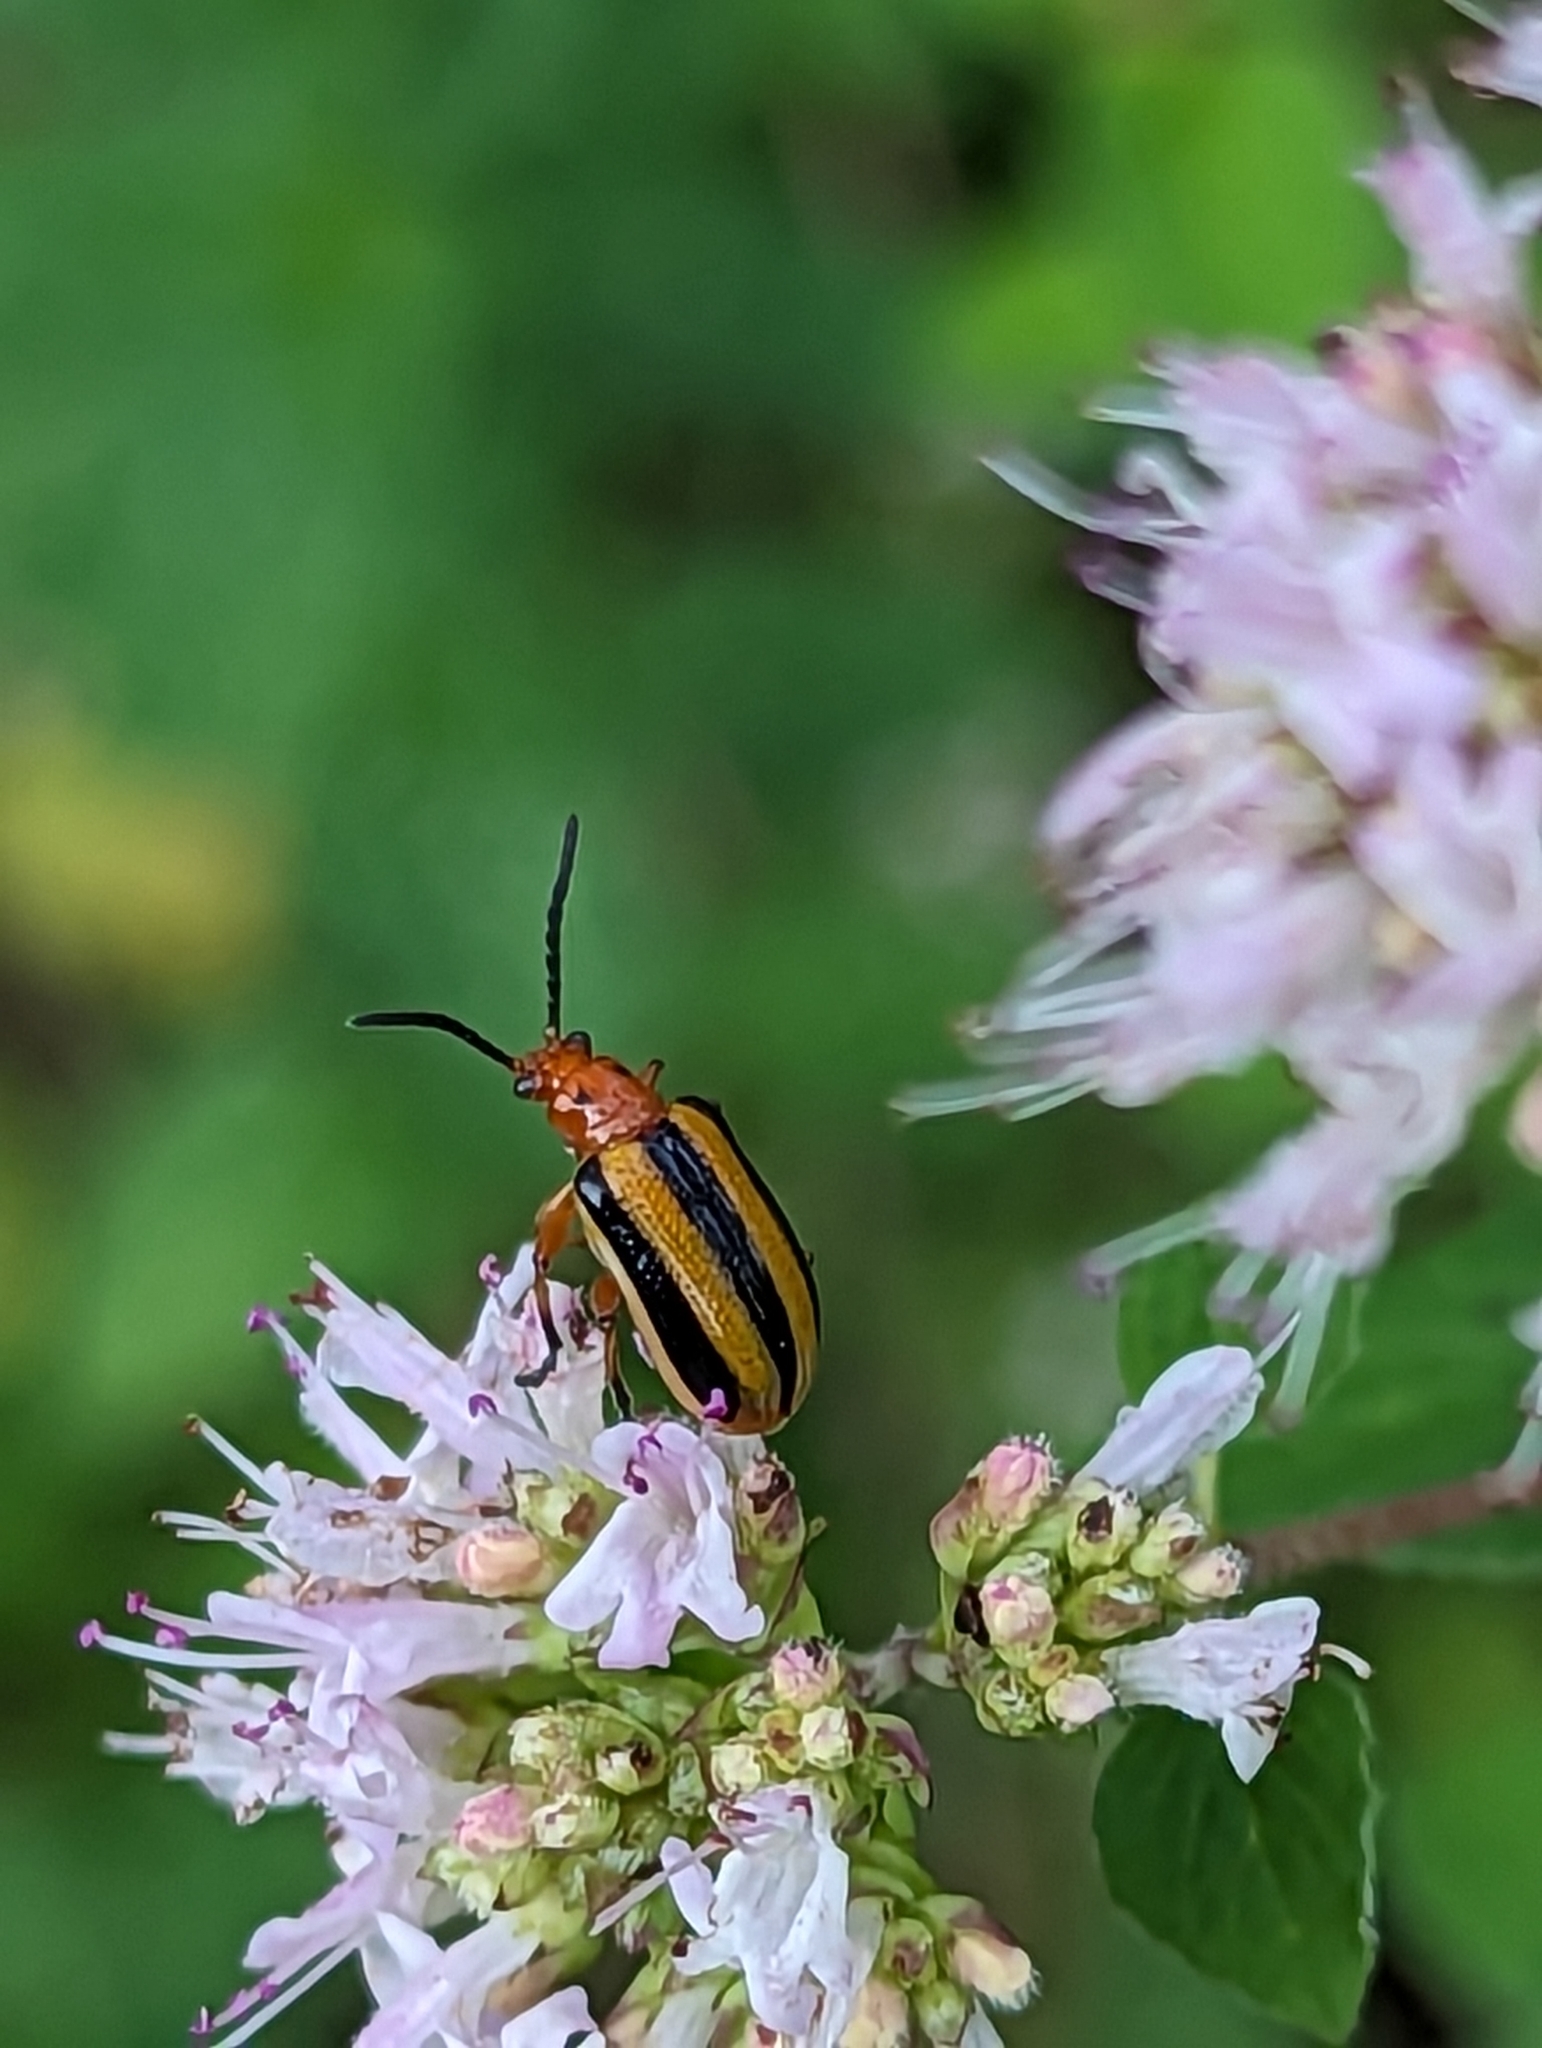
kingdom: Animalia
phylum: Arthropoda
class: Insecta
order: Coleoptera
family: Chrysomelidae
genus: Lema
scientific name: Lema daturaphila
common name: Leaf beetle
